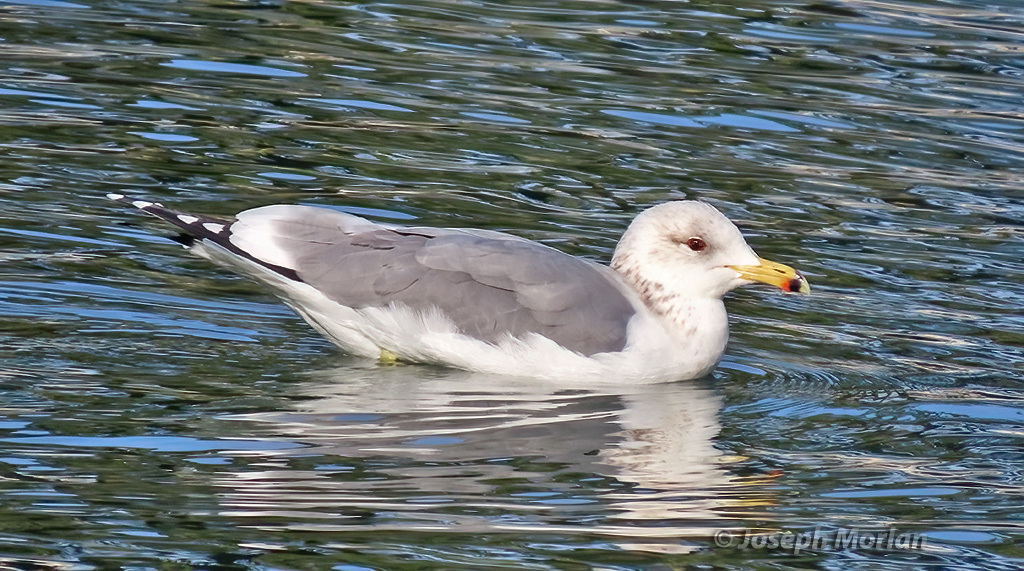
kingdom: Animalia
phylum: Chordata
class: Aves
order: Charadriiformes
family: Laridae
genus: Larus
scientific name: Larus californicus
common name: California gull
